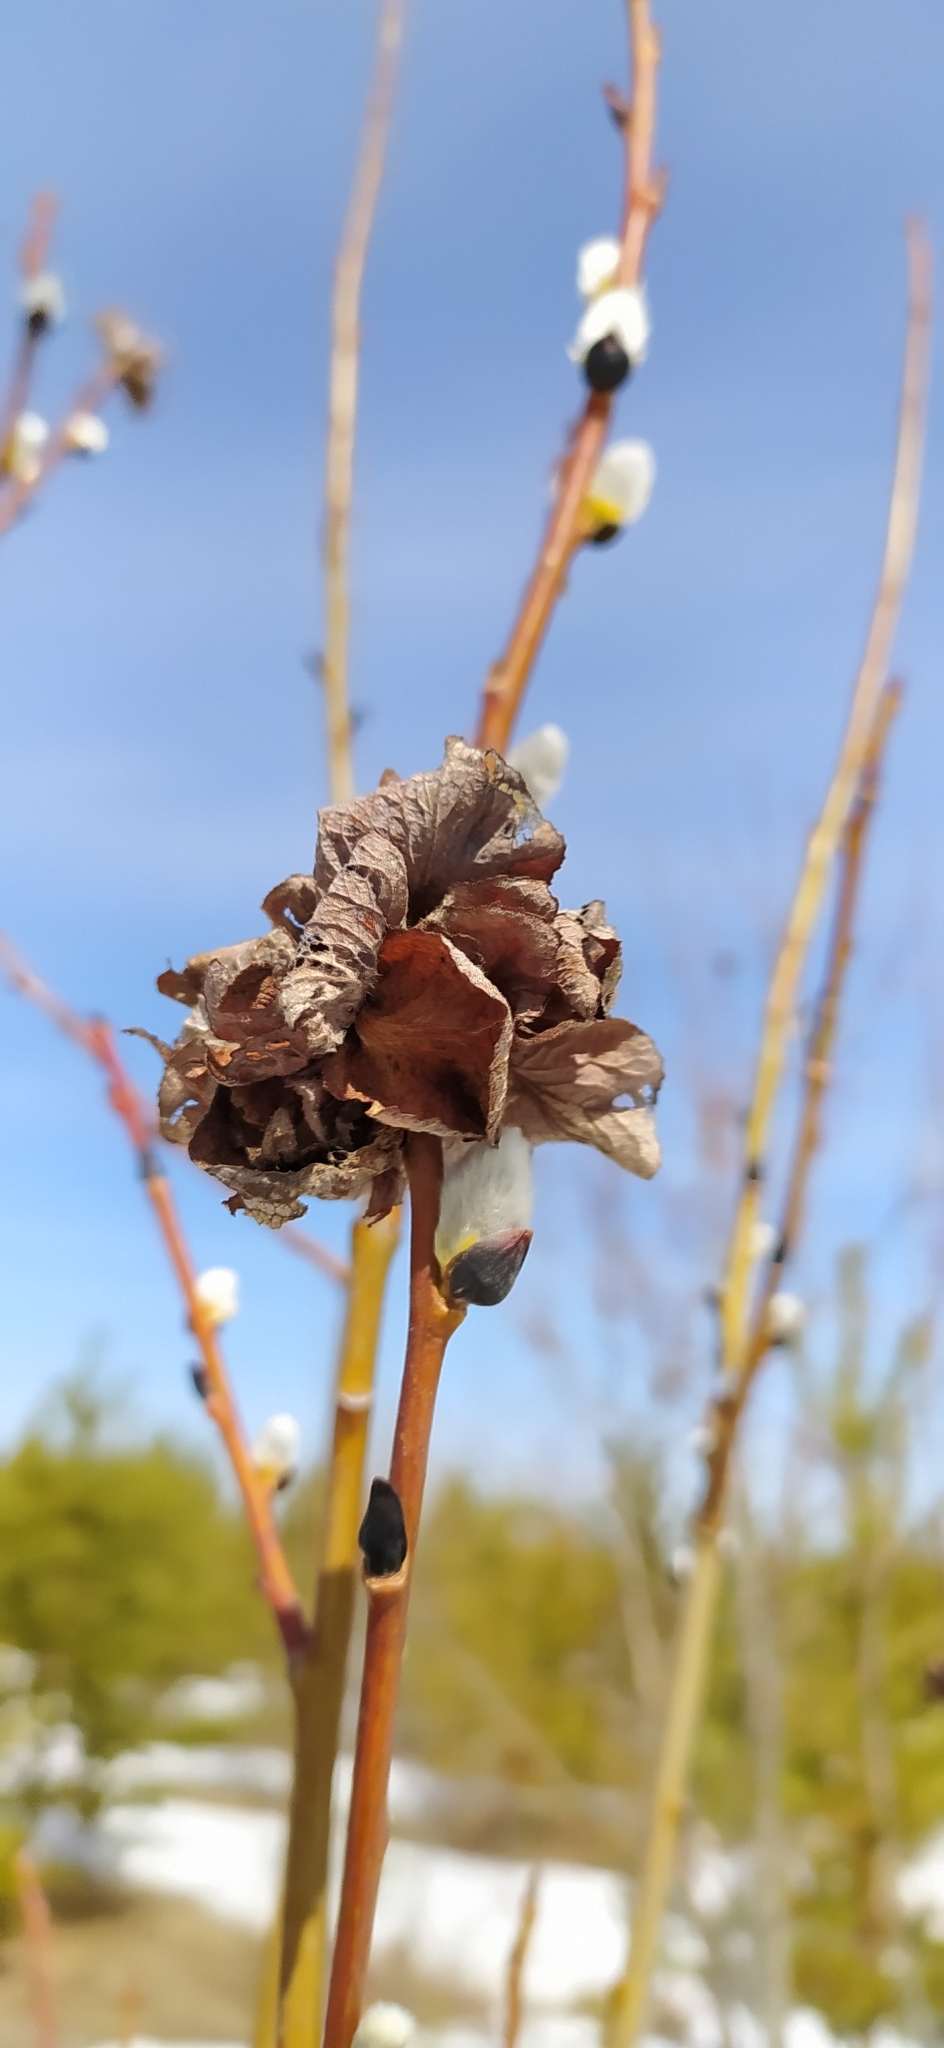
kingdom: Animalia
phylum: Arthropoda
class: Insecta
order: Diptera
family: Cecidomyiidae
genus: Rabdophaga
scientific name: Rabdophaga rosaria
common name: Willow rose gall midge
